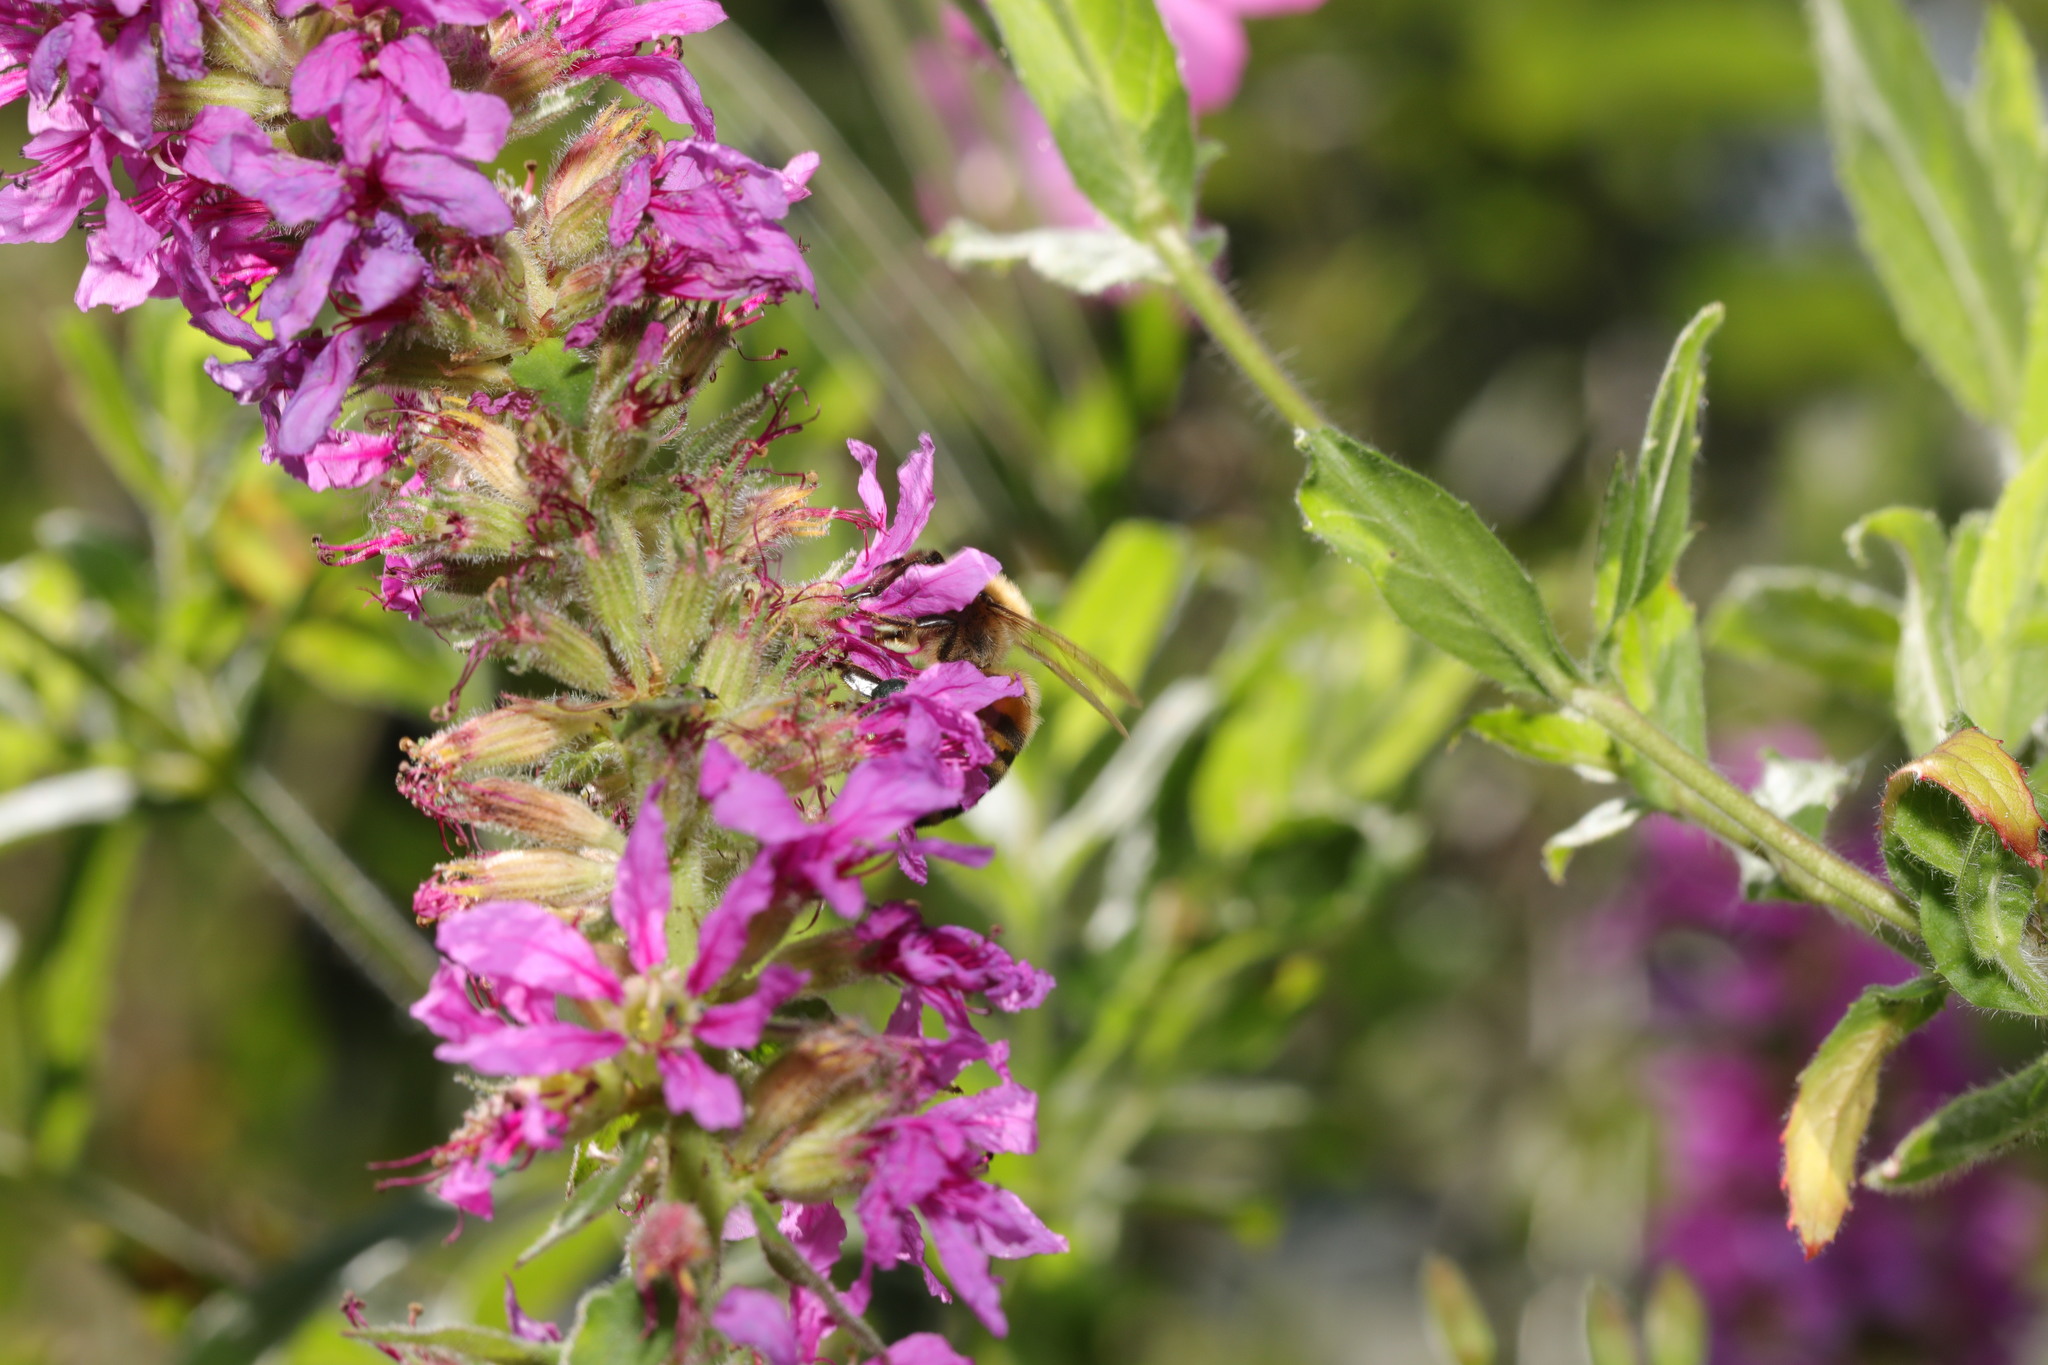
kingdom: Plantae
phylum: Tracheophyta
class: Magnoliopsida
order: Myrtales
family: Lythraceae
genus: Lythrum
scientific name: Lythrum salicaria
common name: Purple loosestrife
